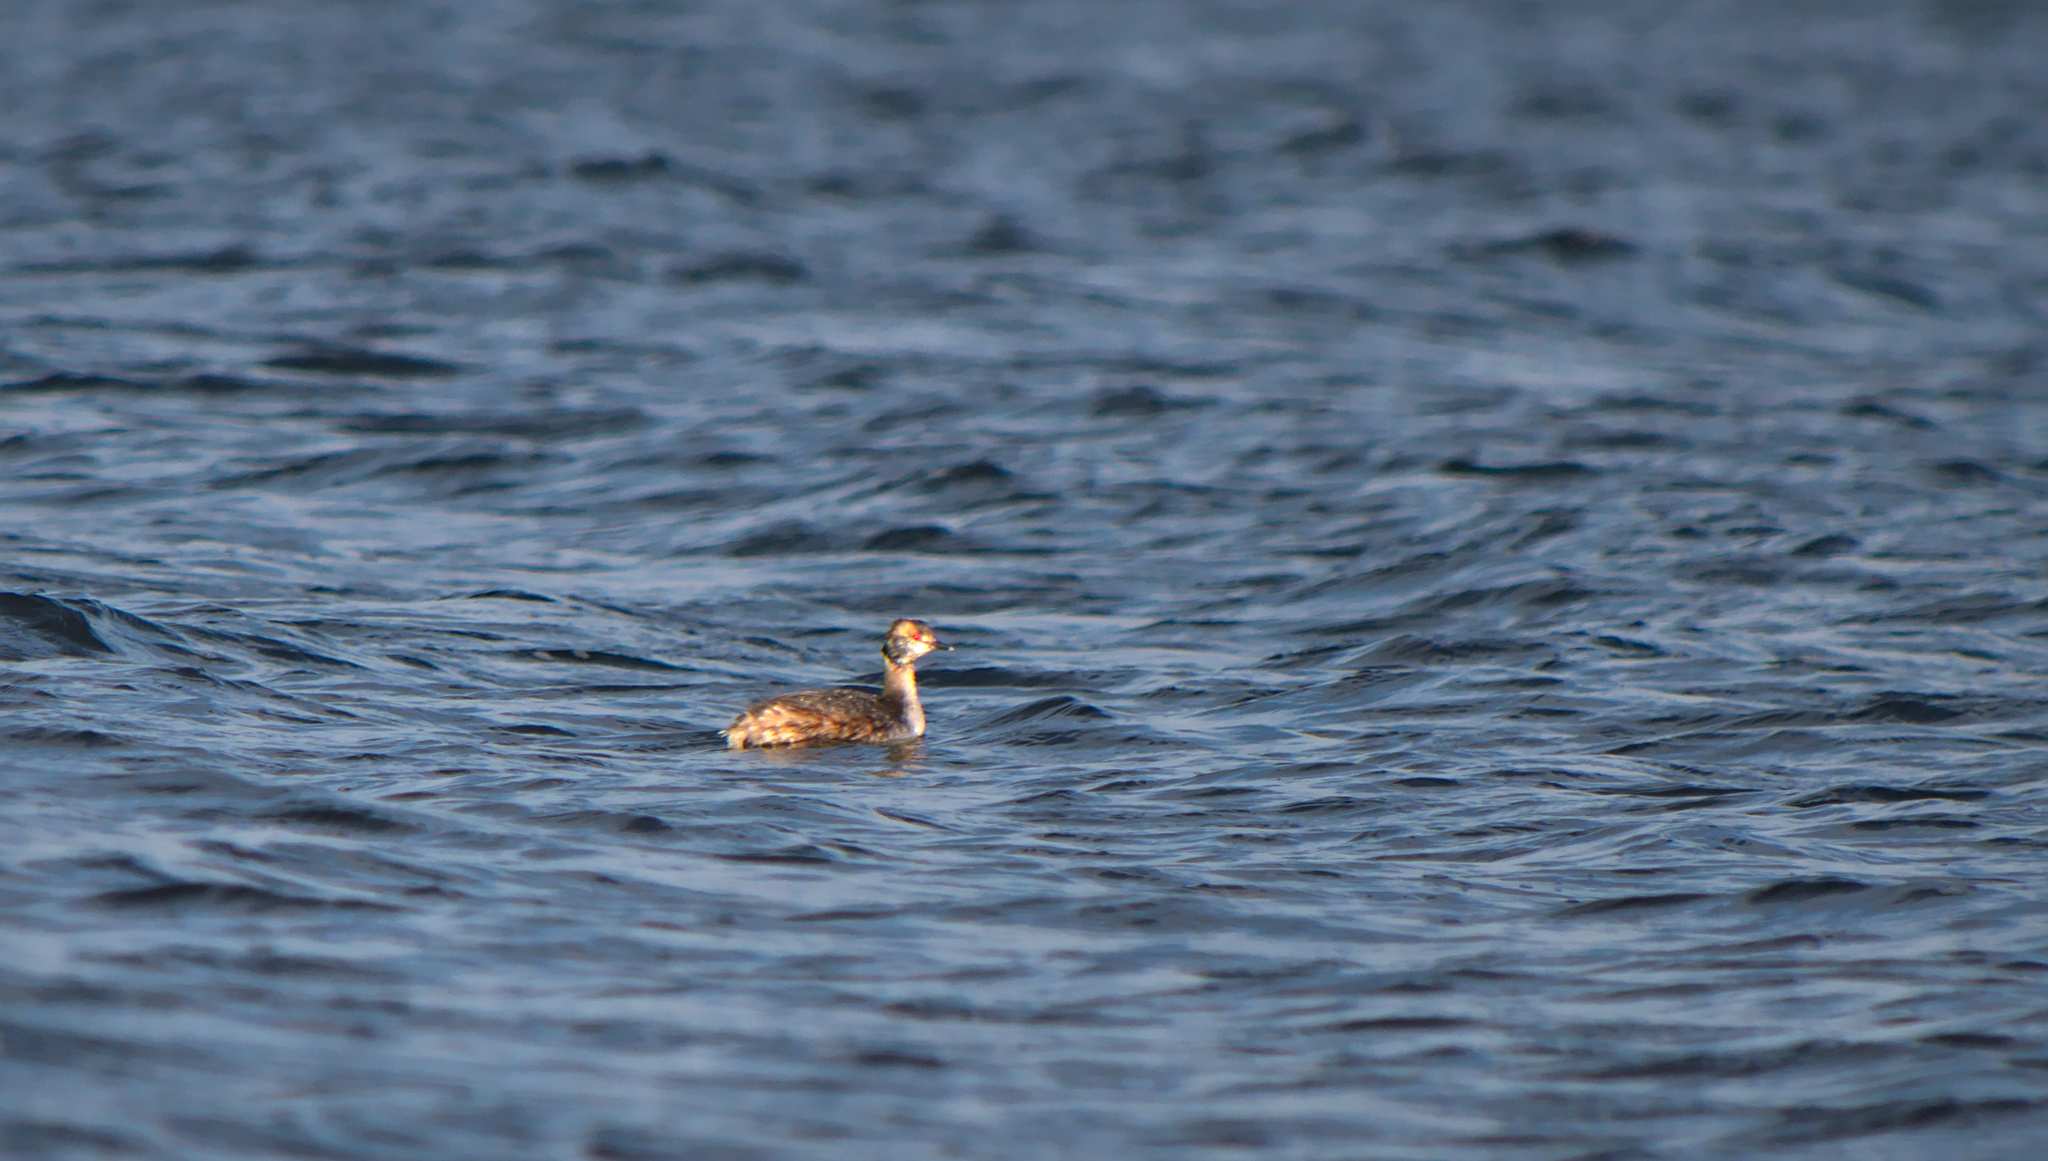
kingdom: Animalia
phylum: Chordata
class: Aves
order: Podicipediformes
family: Podicipedidae
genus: Podiceps
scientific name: Podiceps auritus
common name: Horned grebe
